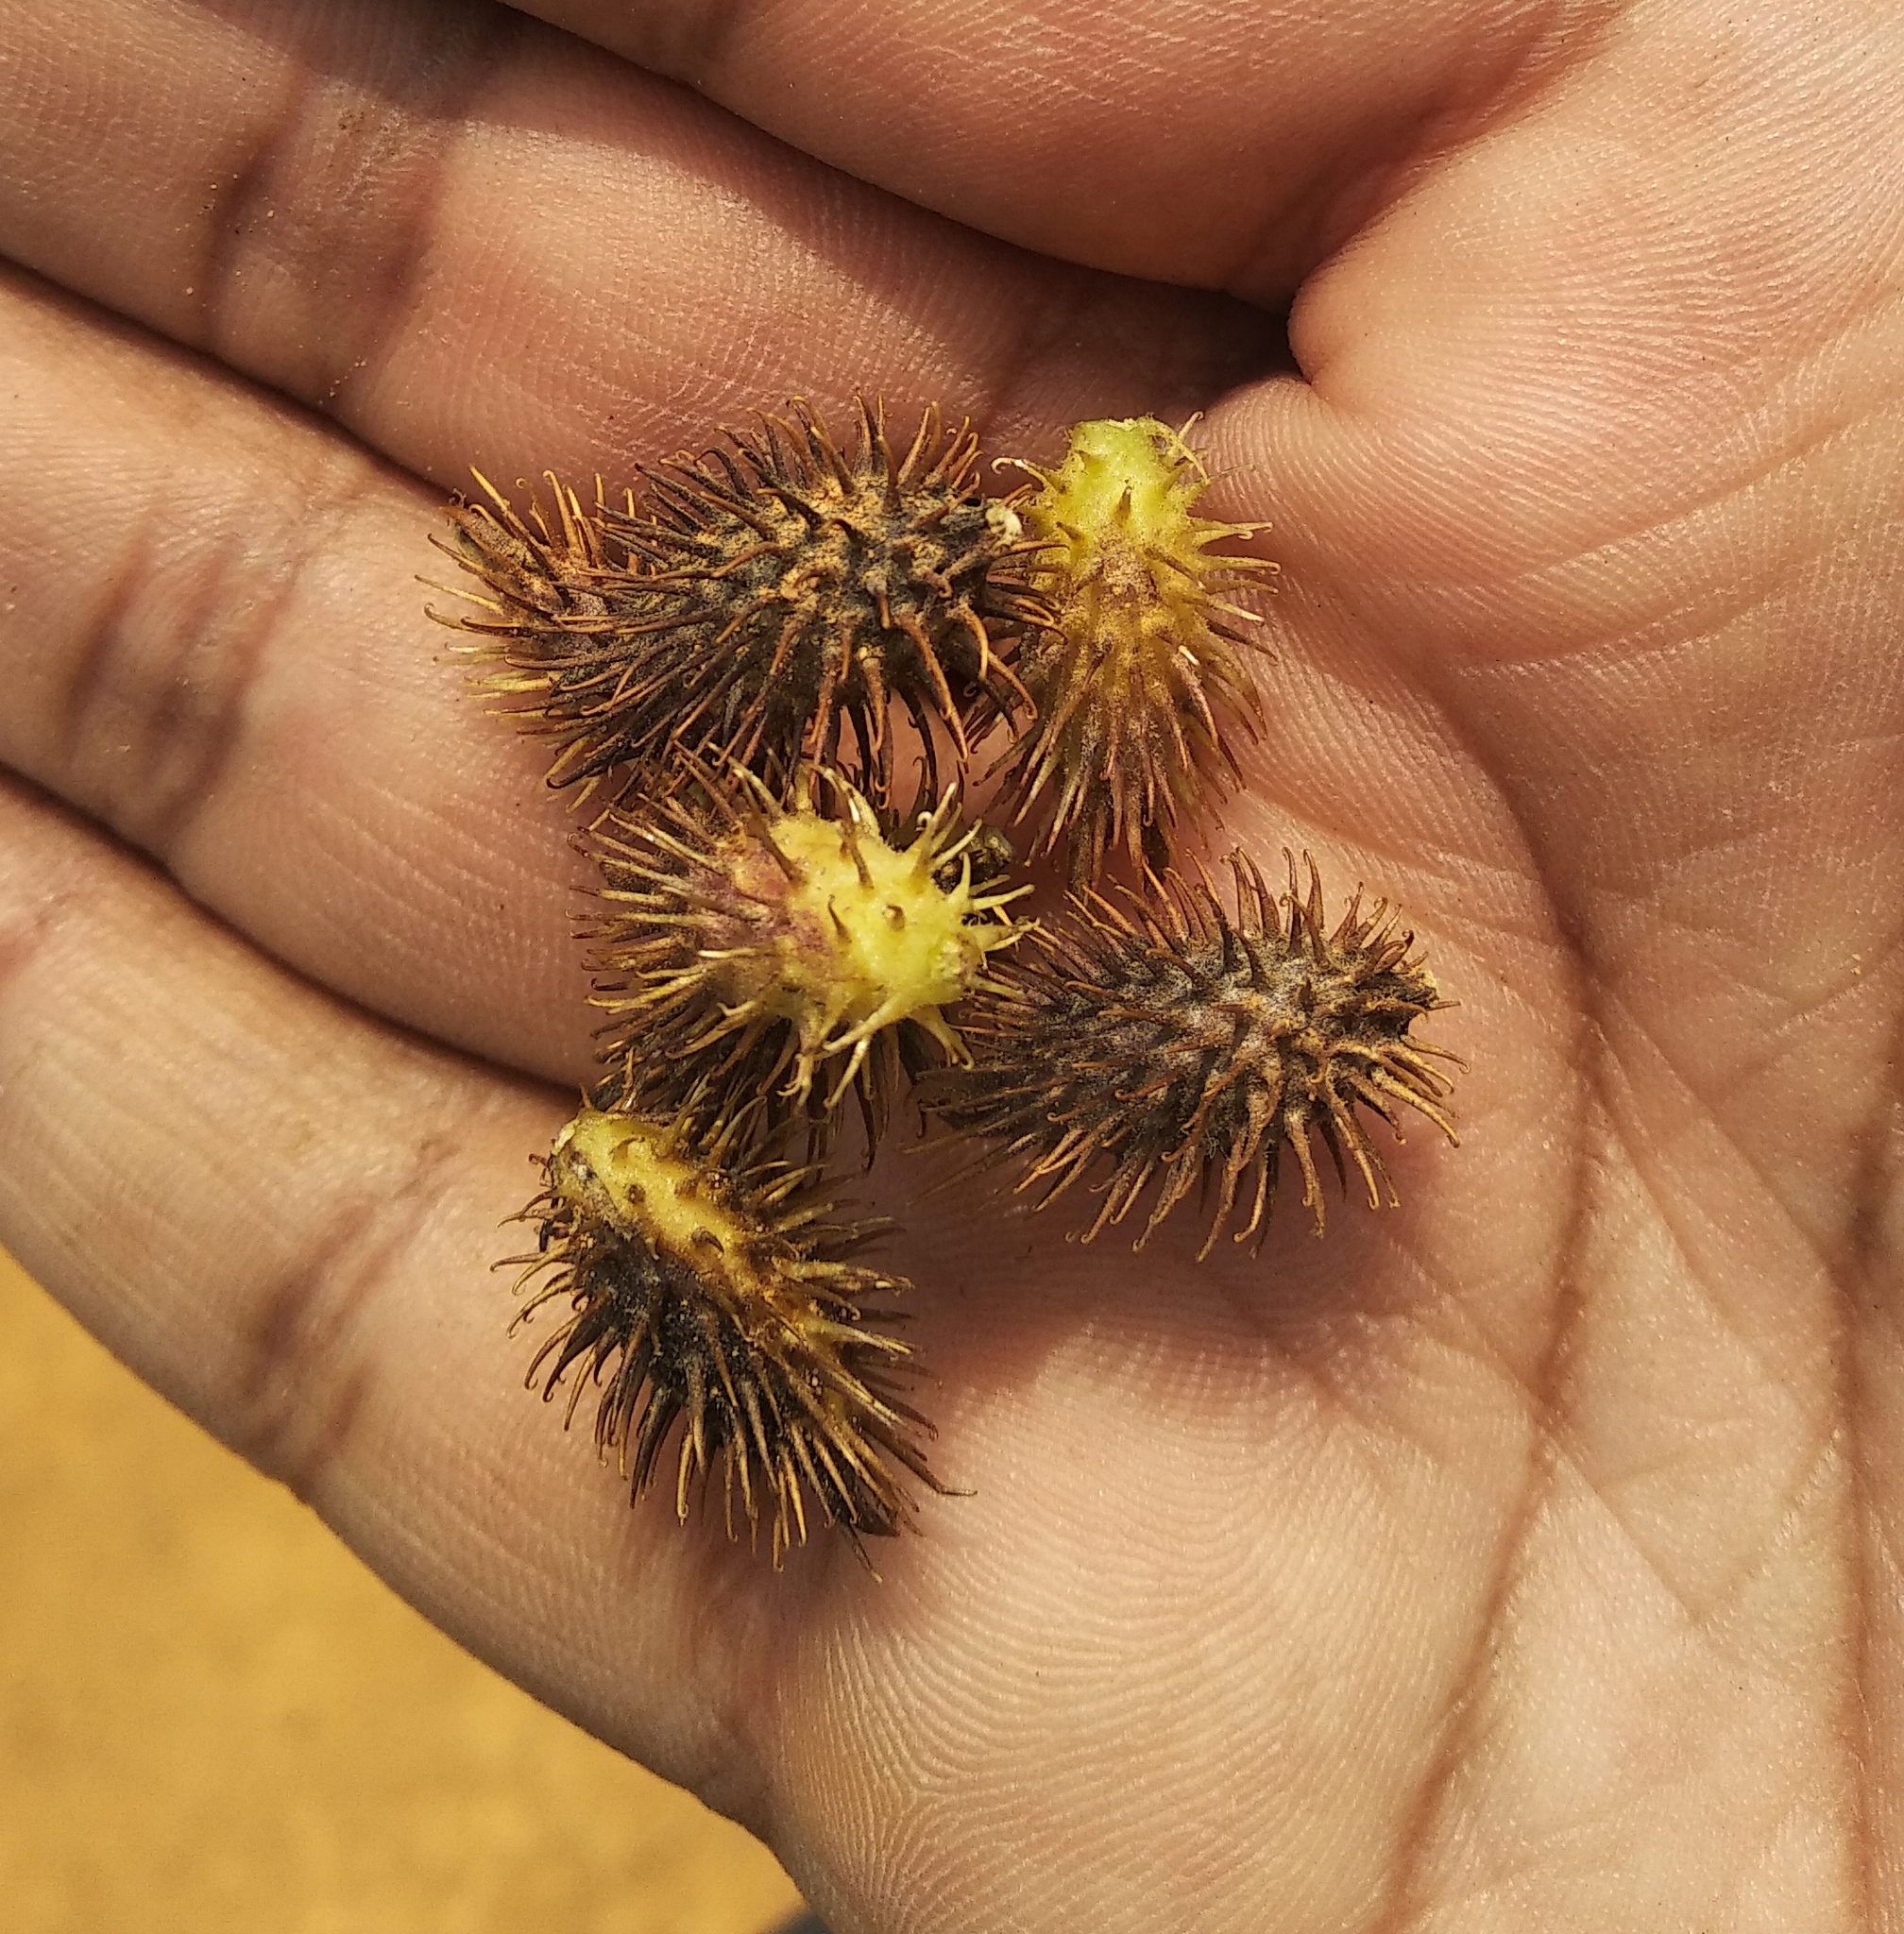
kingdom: Plantae
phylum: Tracheophyta
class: Magnoliopsida
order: Asterales
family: Asteraceae
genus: Xanthium
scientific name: Xanthium strumarium
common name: Rough cocklebur
